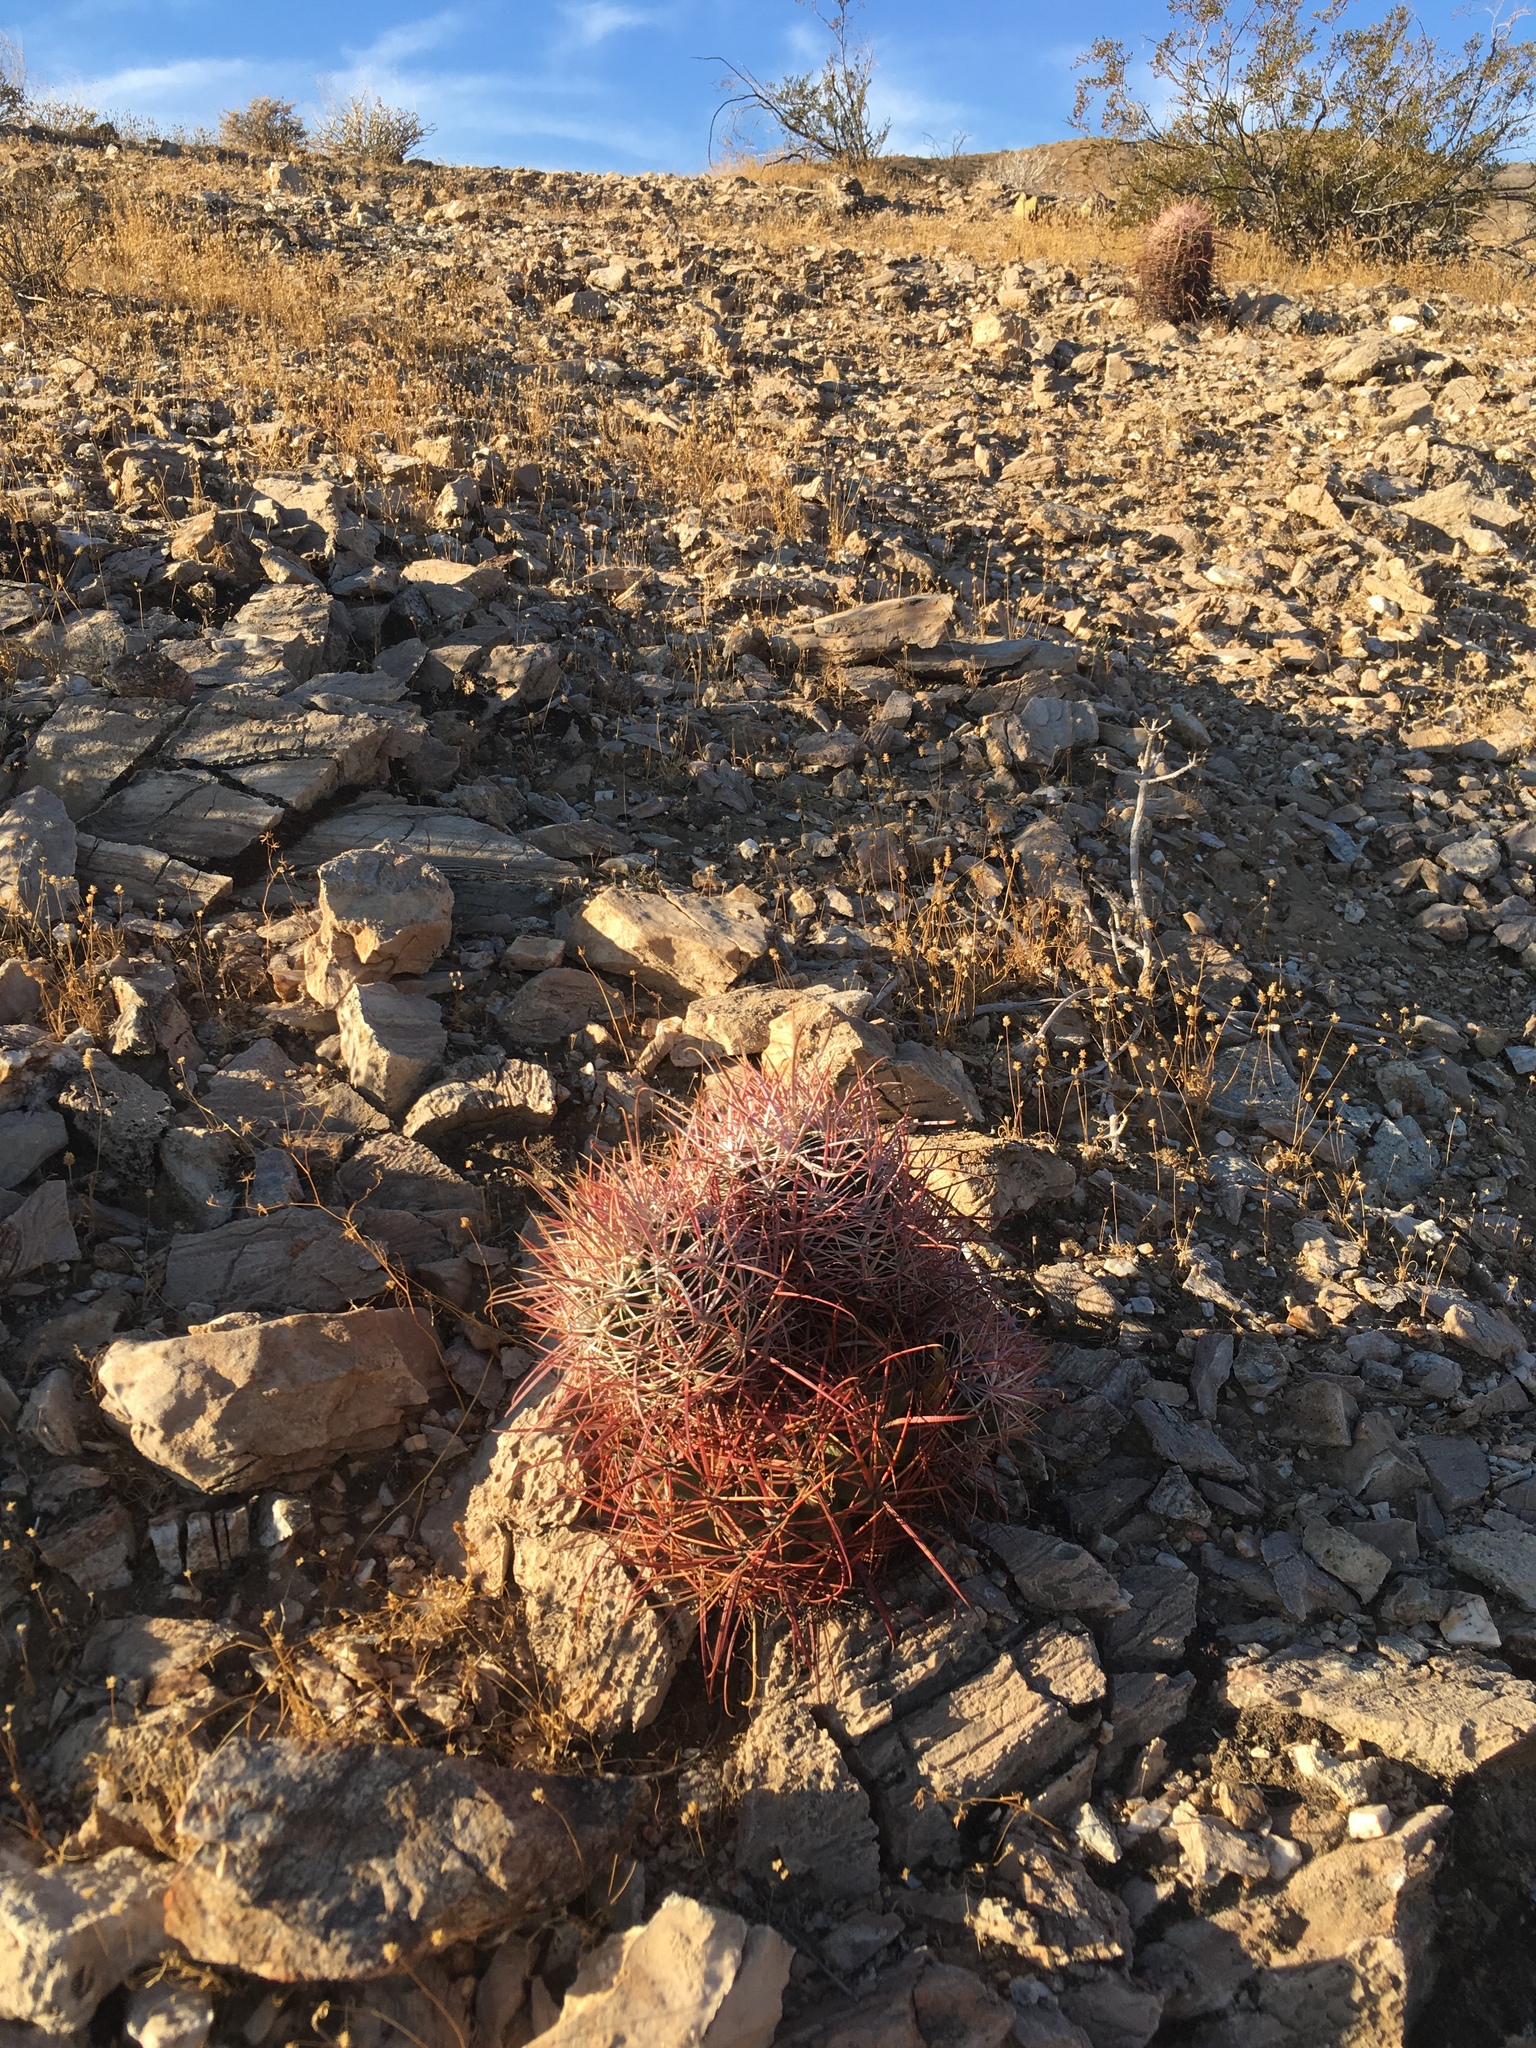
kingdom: Plantae
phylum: Tracheophyta
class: Magnoliopsida
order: Caryophyllales
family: Cactaceae
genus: Ferocactus
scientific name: Ferocactus cylindraceus
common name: California barrel cactus
